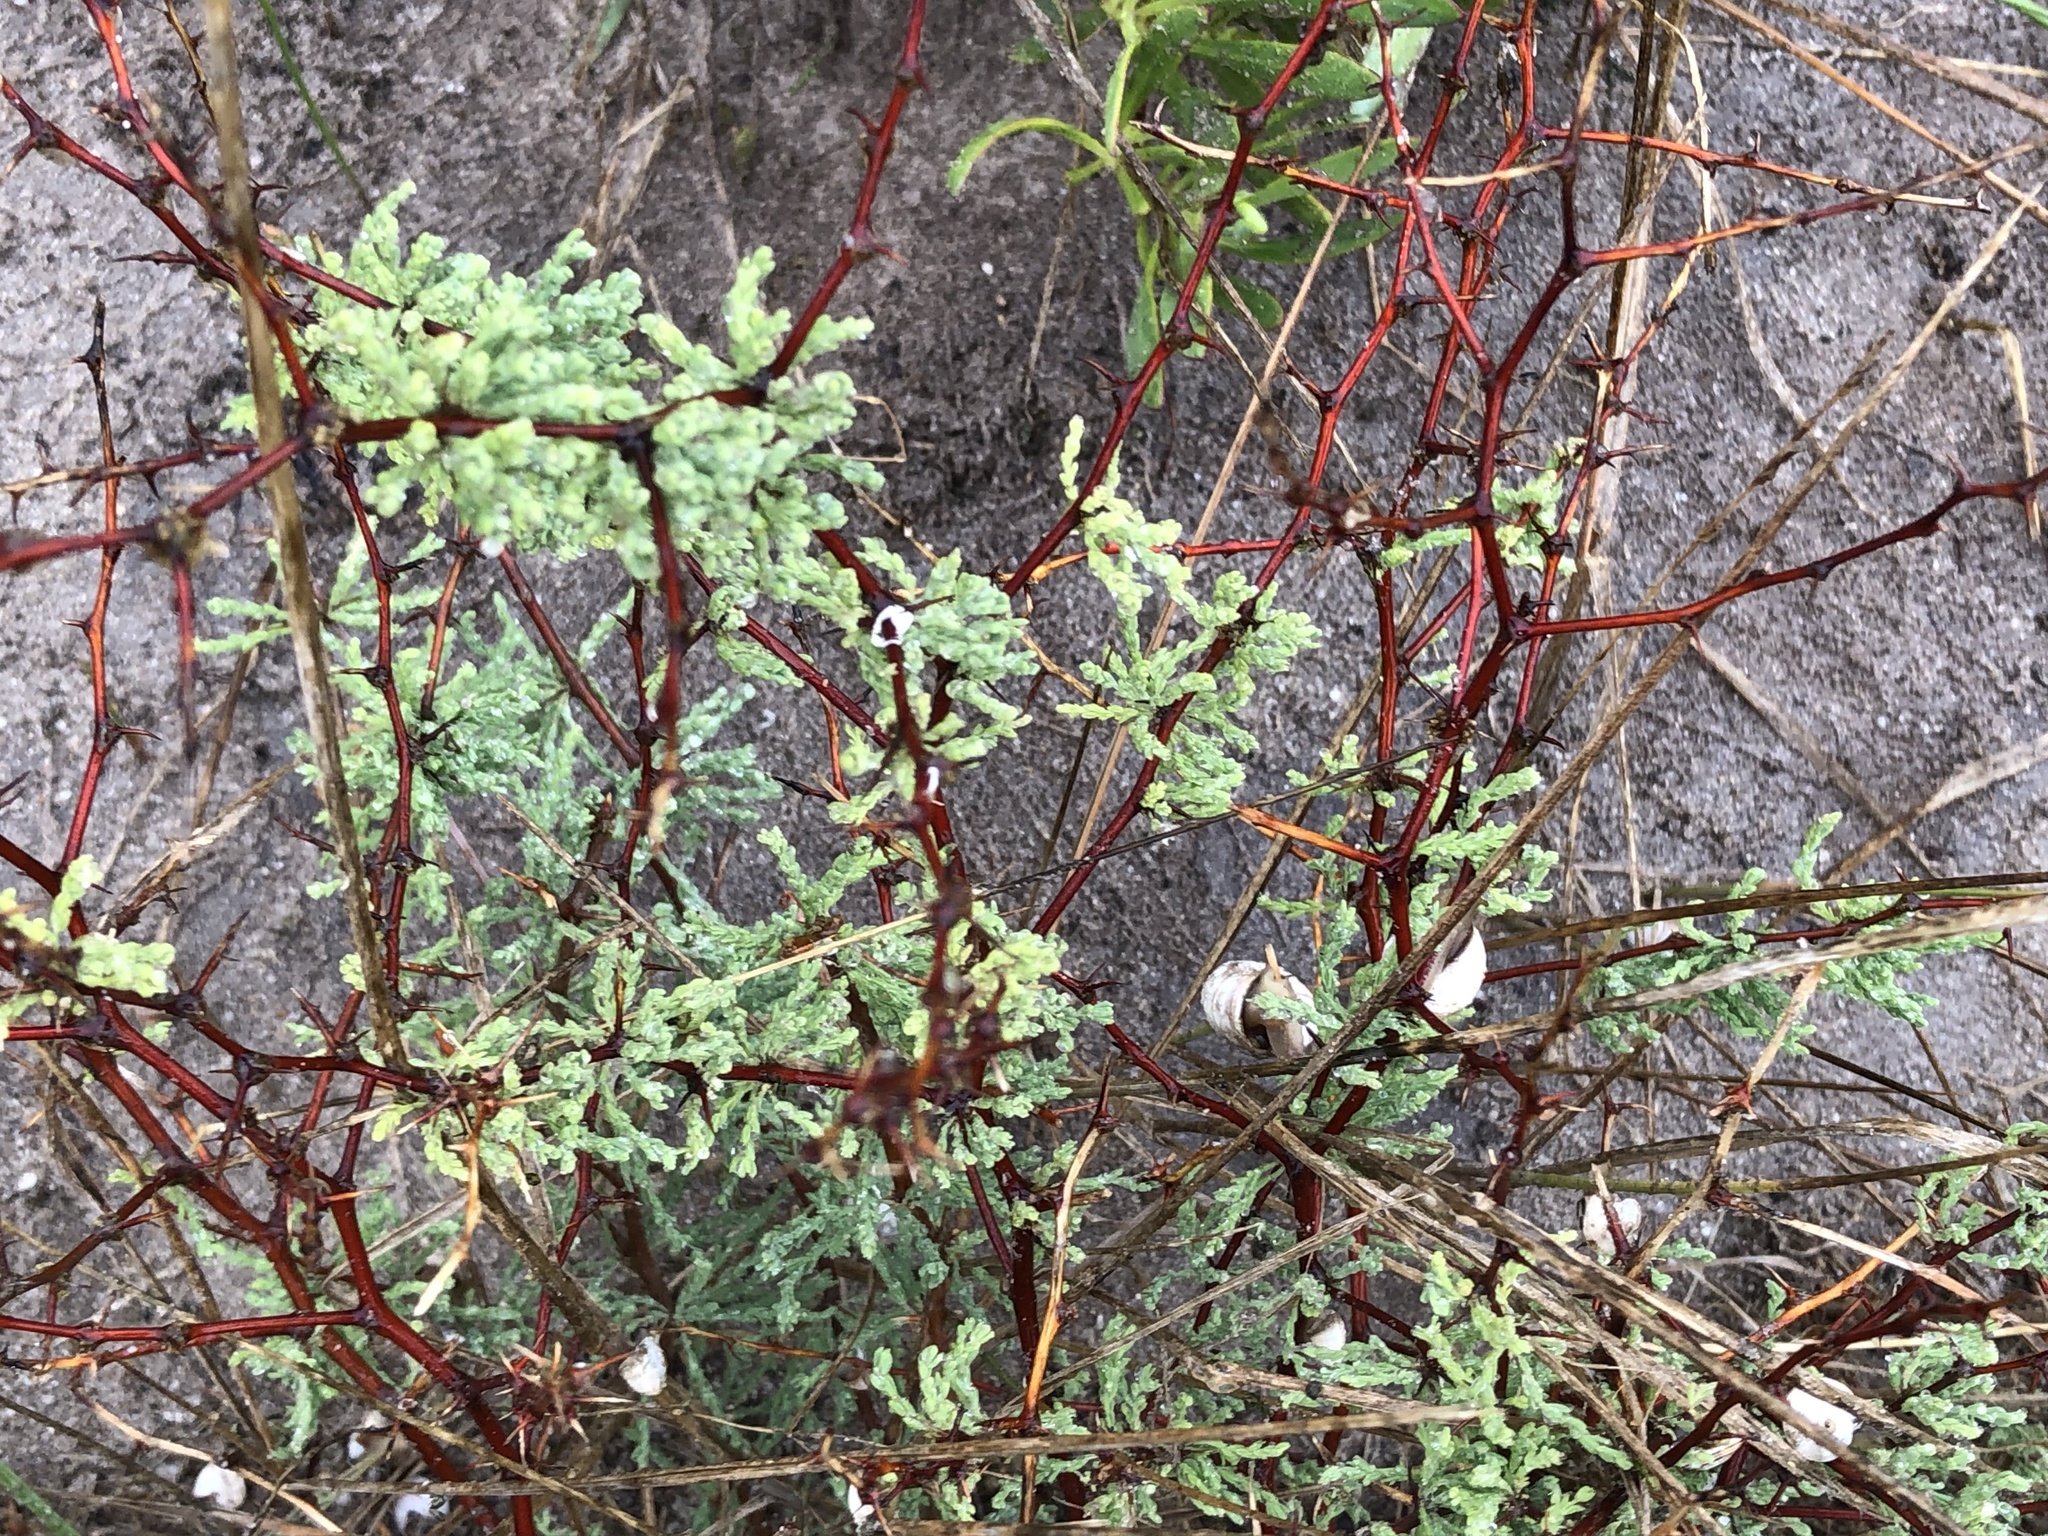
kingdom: Plantae
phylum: Tracheophyta
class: Liliopsida
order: Asparagales
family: Asparagaceae
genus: Asparagus
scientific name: Asparagus rubicundus
